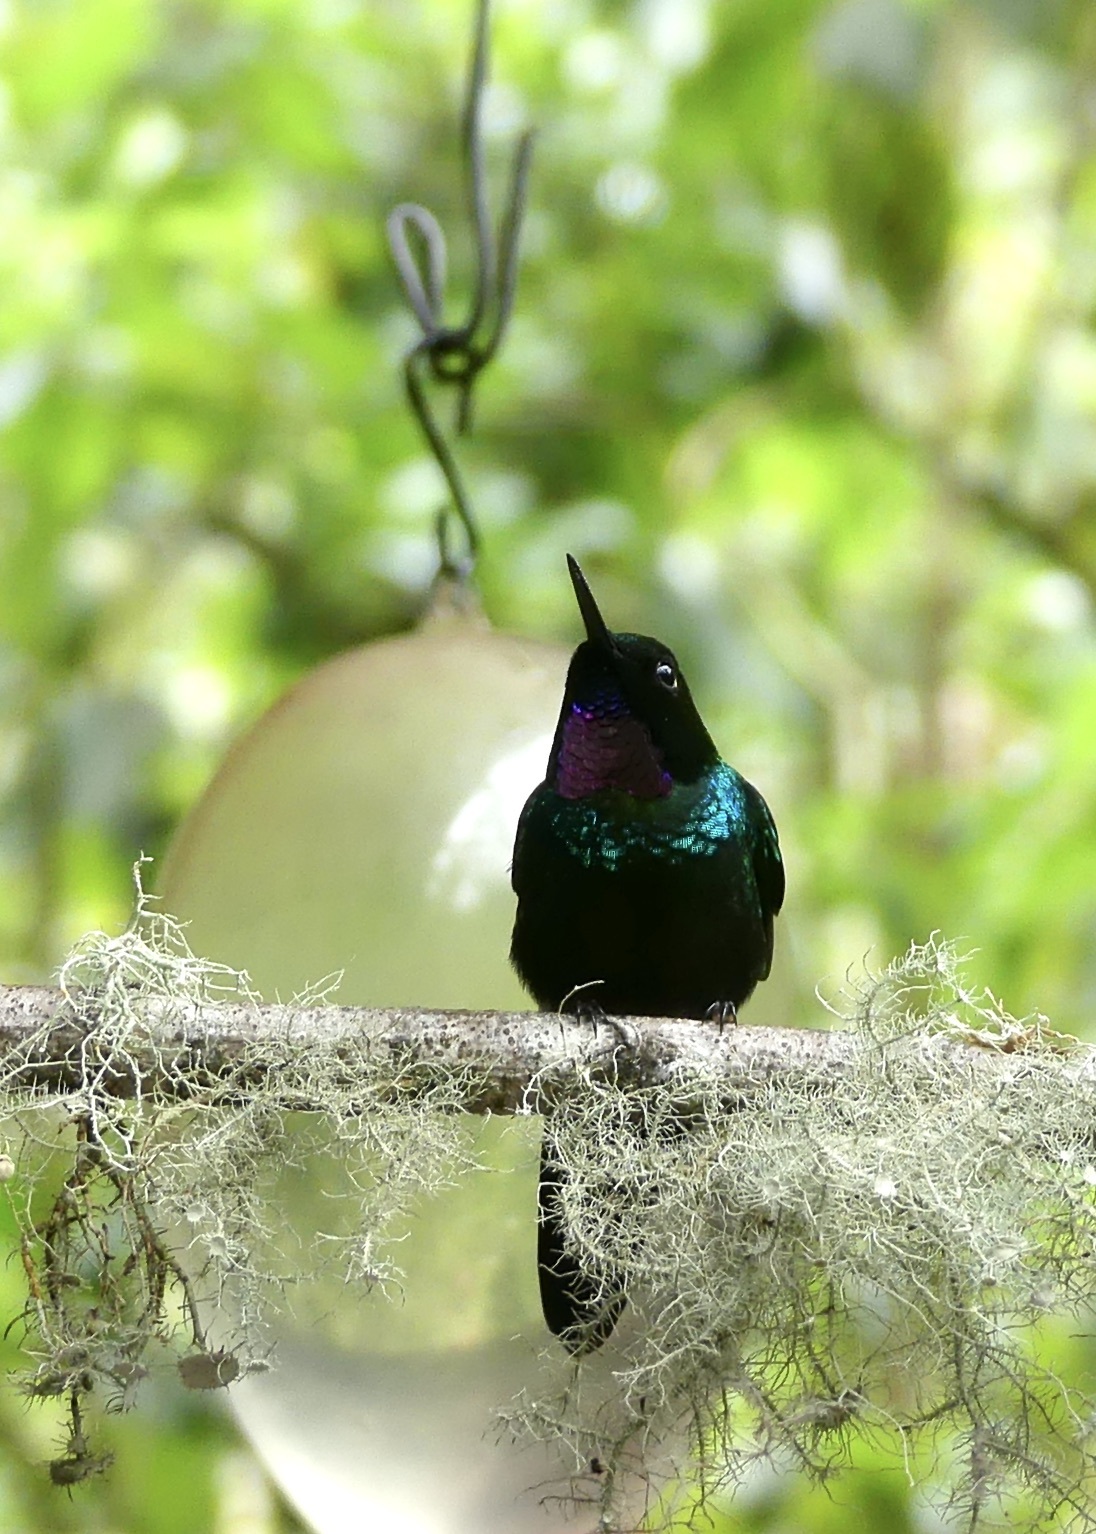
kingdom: Animalia
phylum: Chordata
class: Aves
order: Apodiformes
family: Trochilidae
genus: Heliangelus
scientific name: Heliangelus exortis
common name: Tourmaline sunangel
